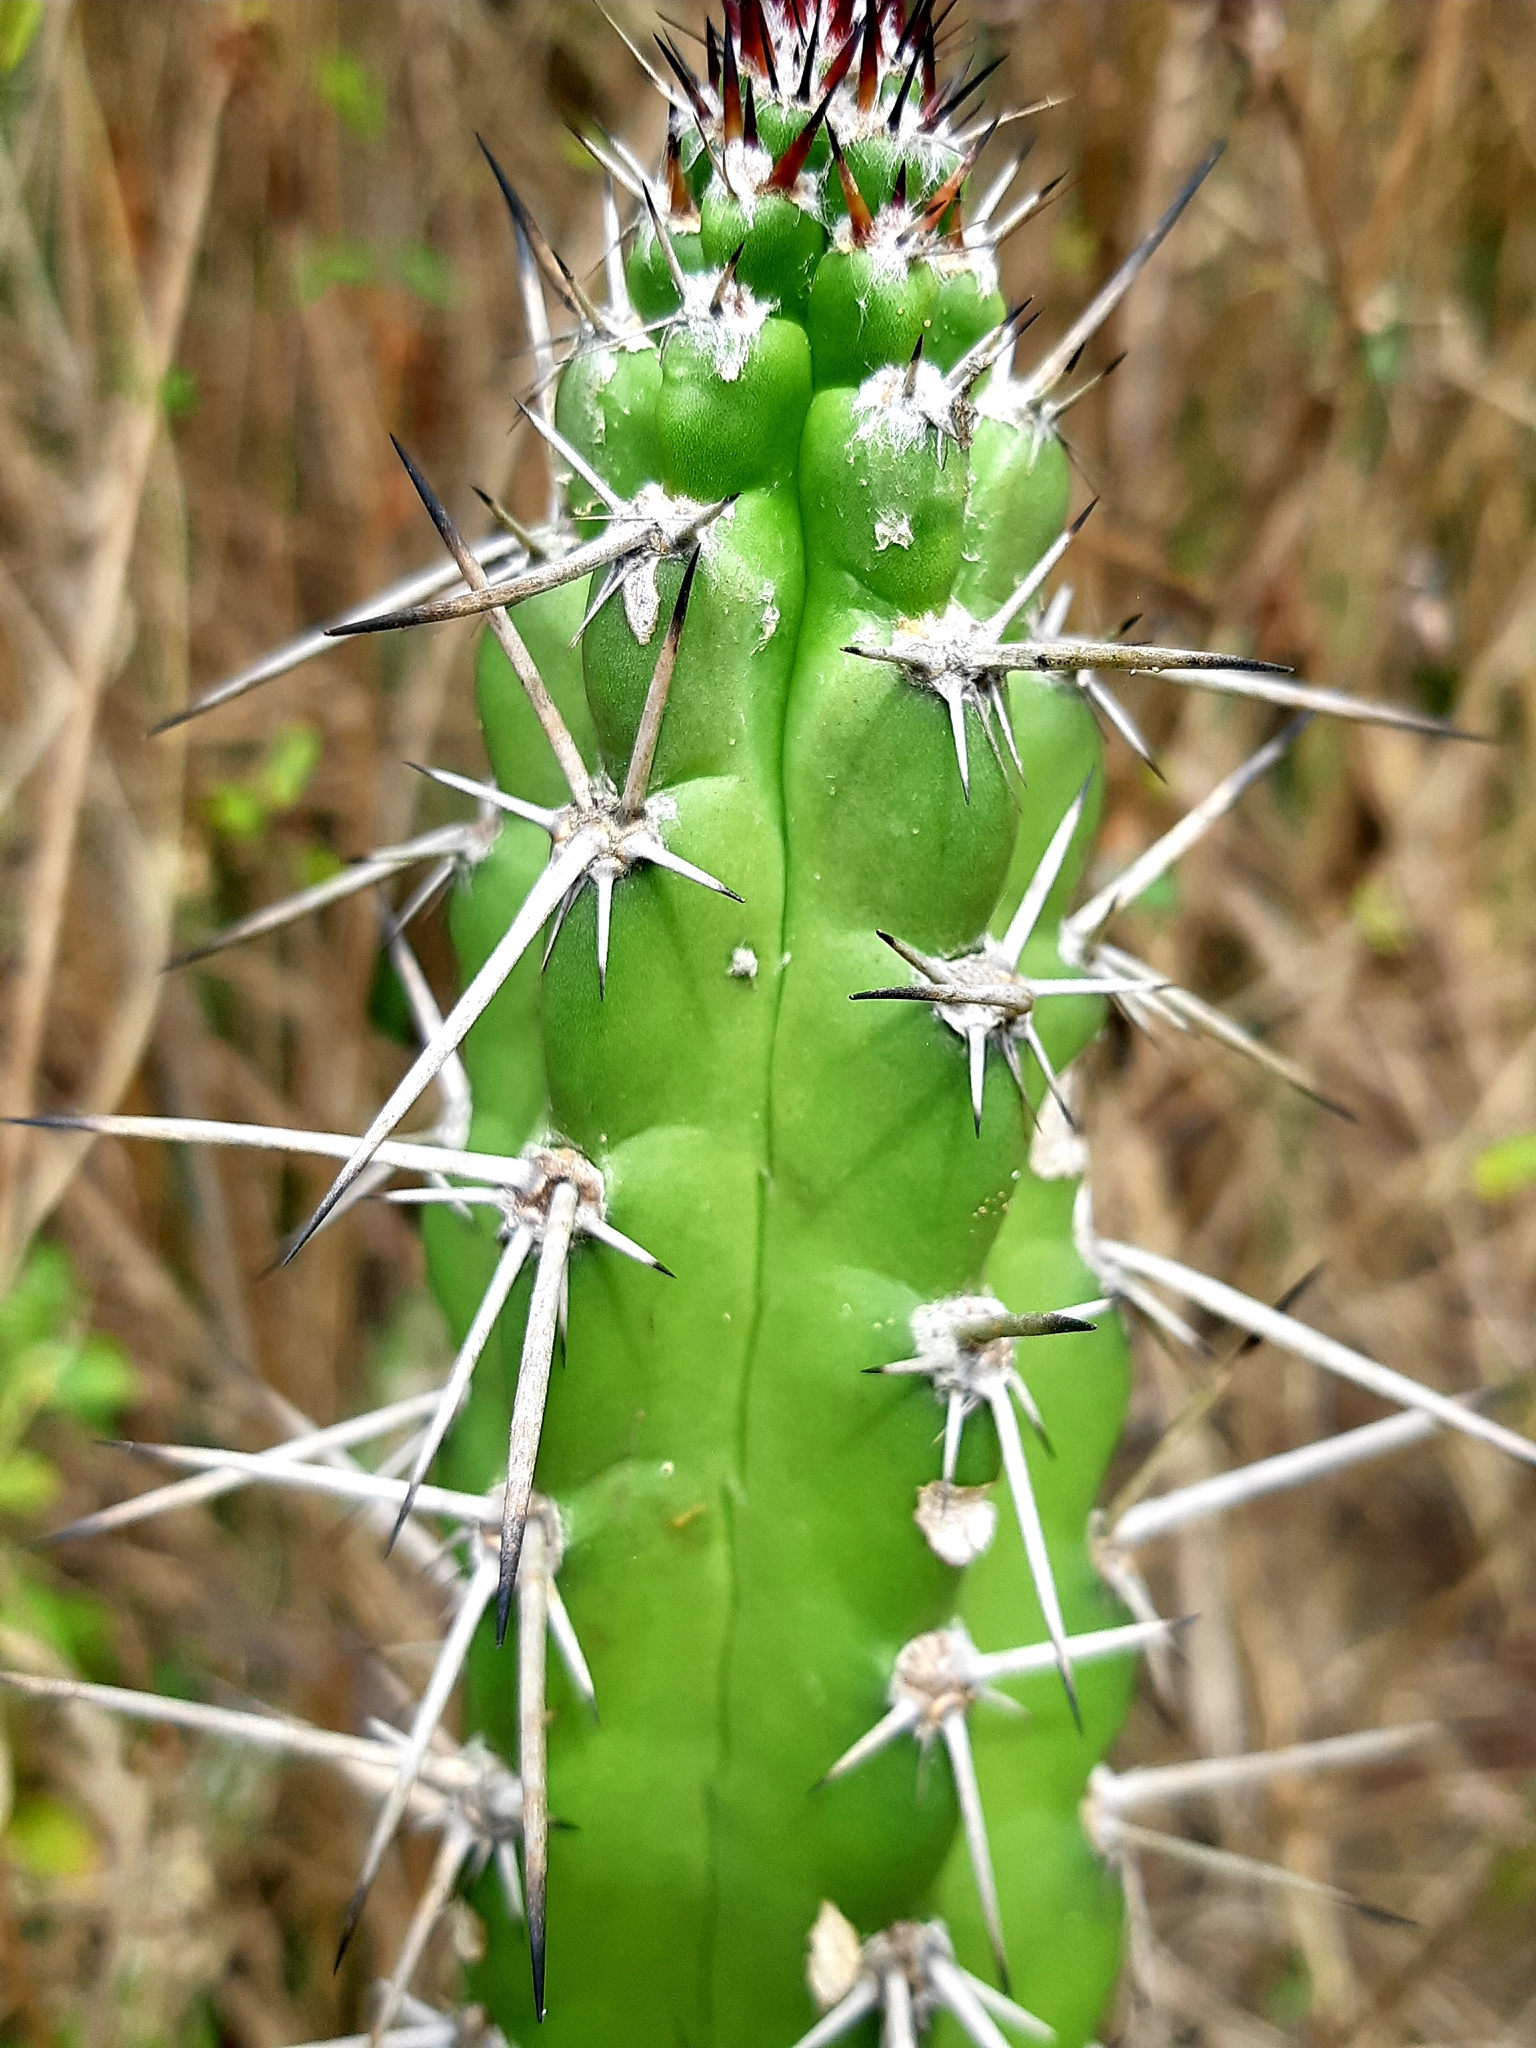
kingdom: Plantae
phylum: Tracheophyta
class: Magnoliopsida
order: Caryophyllales
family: Cactaceae
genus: Praecereus
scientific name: Praecereus euchlorus
